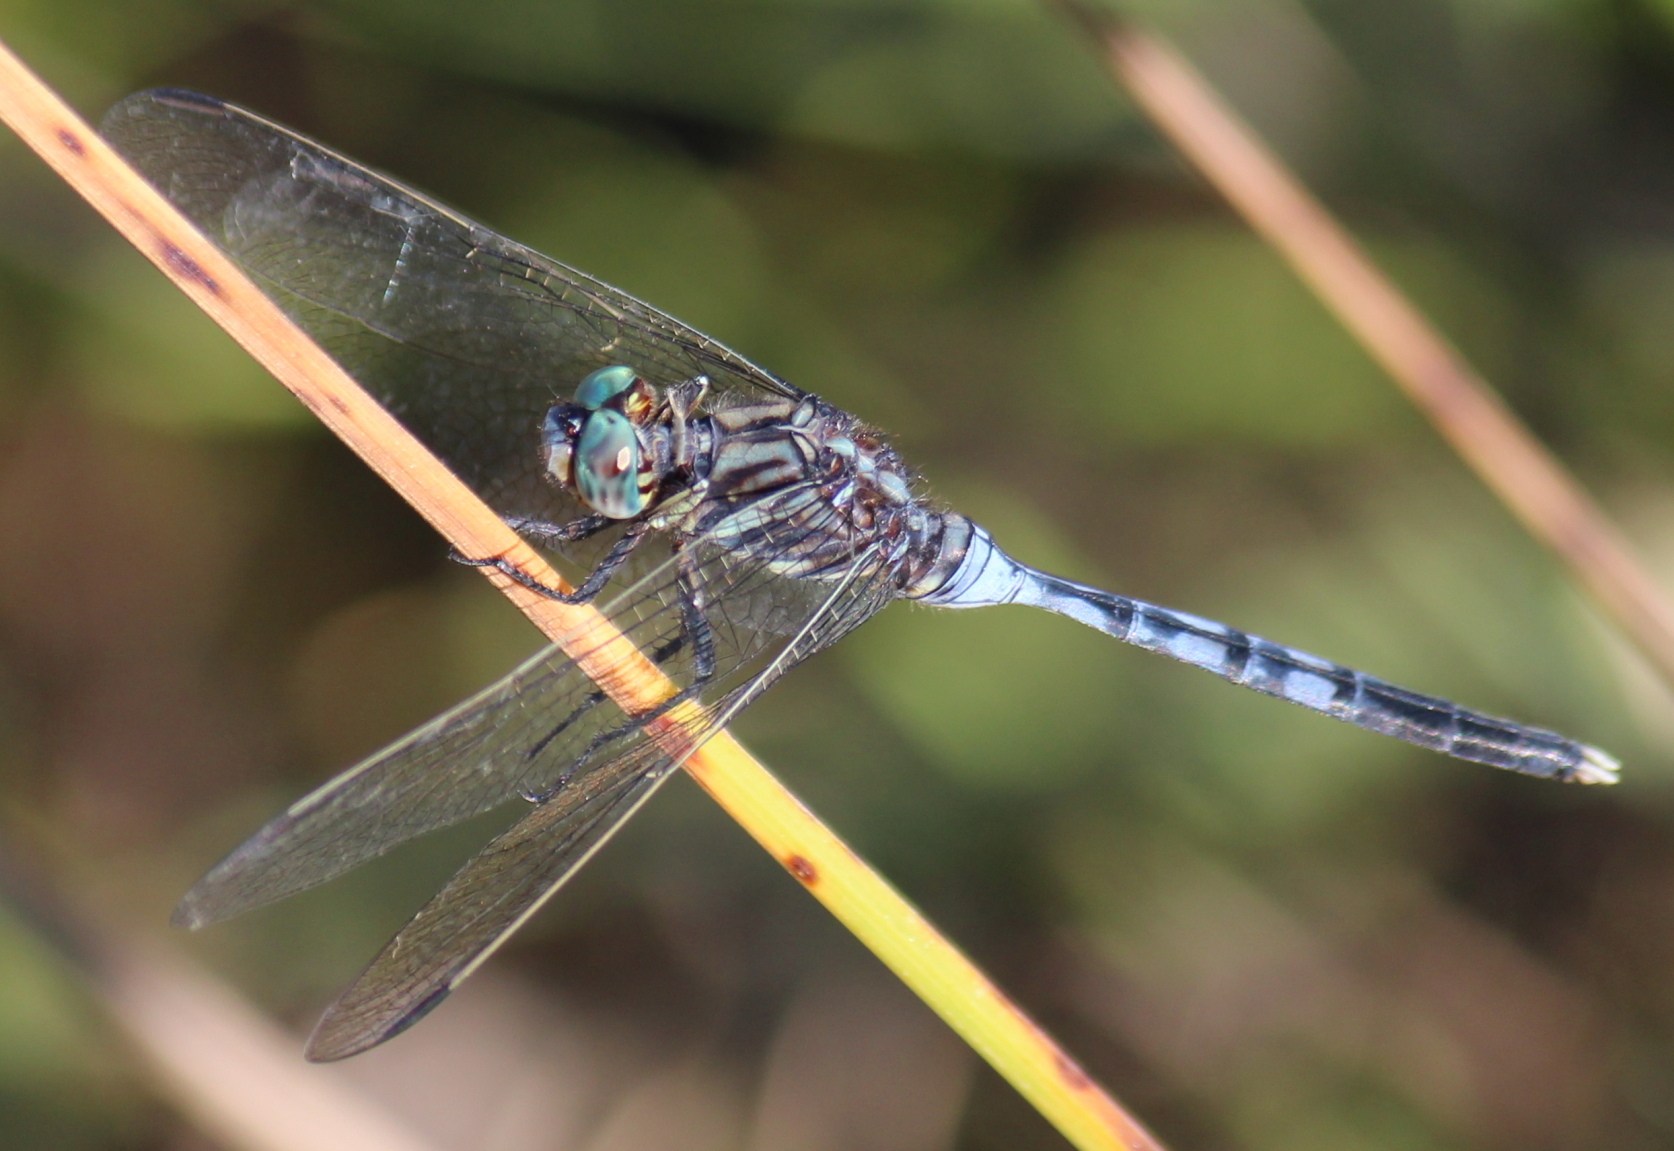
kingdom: Animalia
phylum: Arthropoda
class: Insecta
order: Odonata
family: Libellulidae
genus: Orthetrum
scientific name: Orthetrum julia
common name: Julia skimmer
